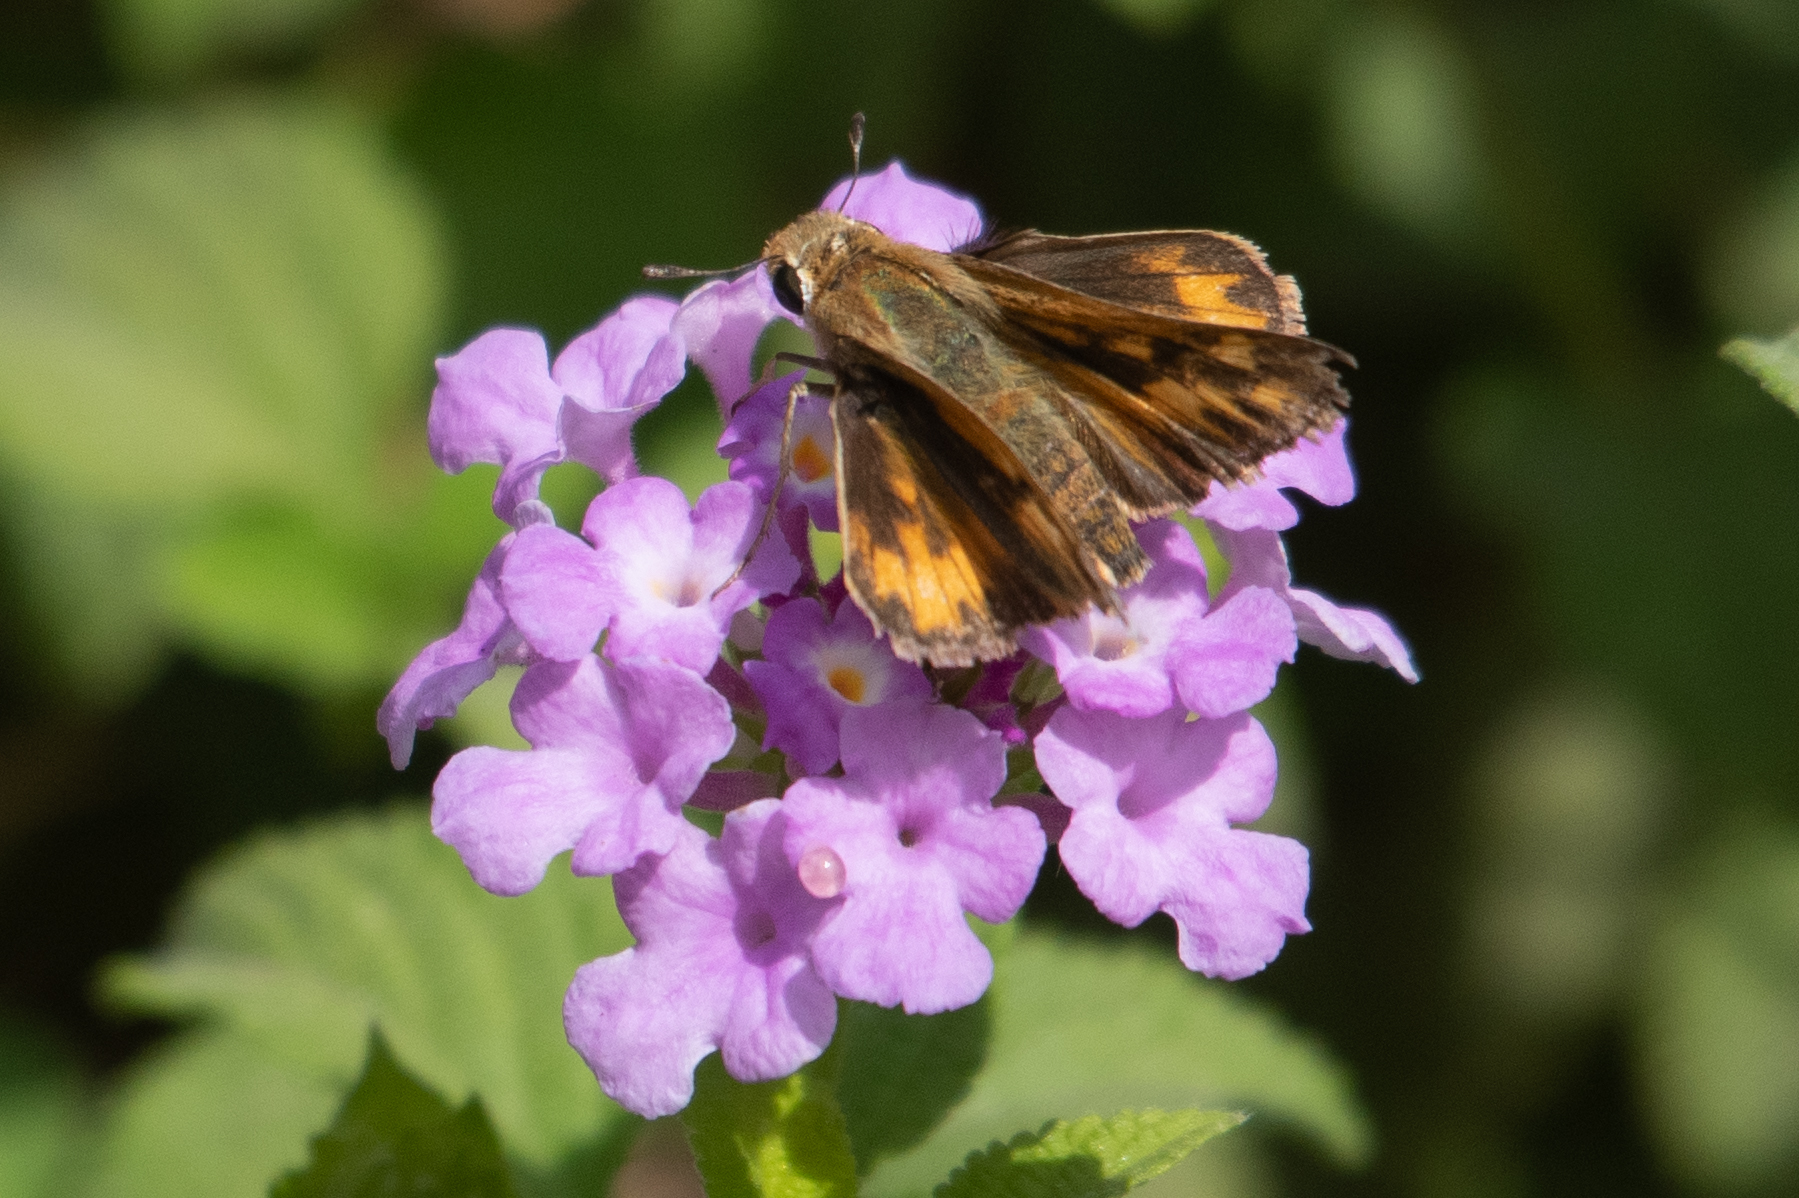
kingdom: Animalia
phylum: Arthropoda
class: Insecta
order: Lepidoptera
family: Hesperiidae
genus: Hylephila
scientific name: Hylephila phyleus
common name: Fiery skipper
